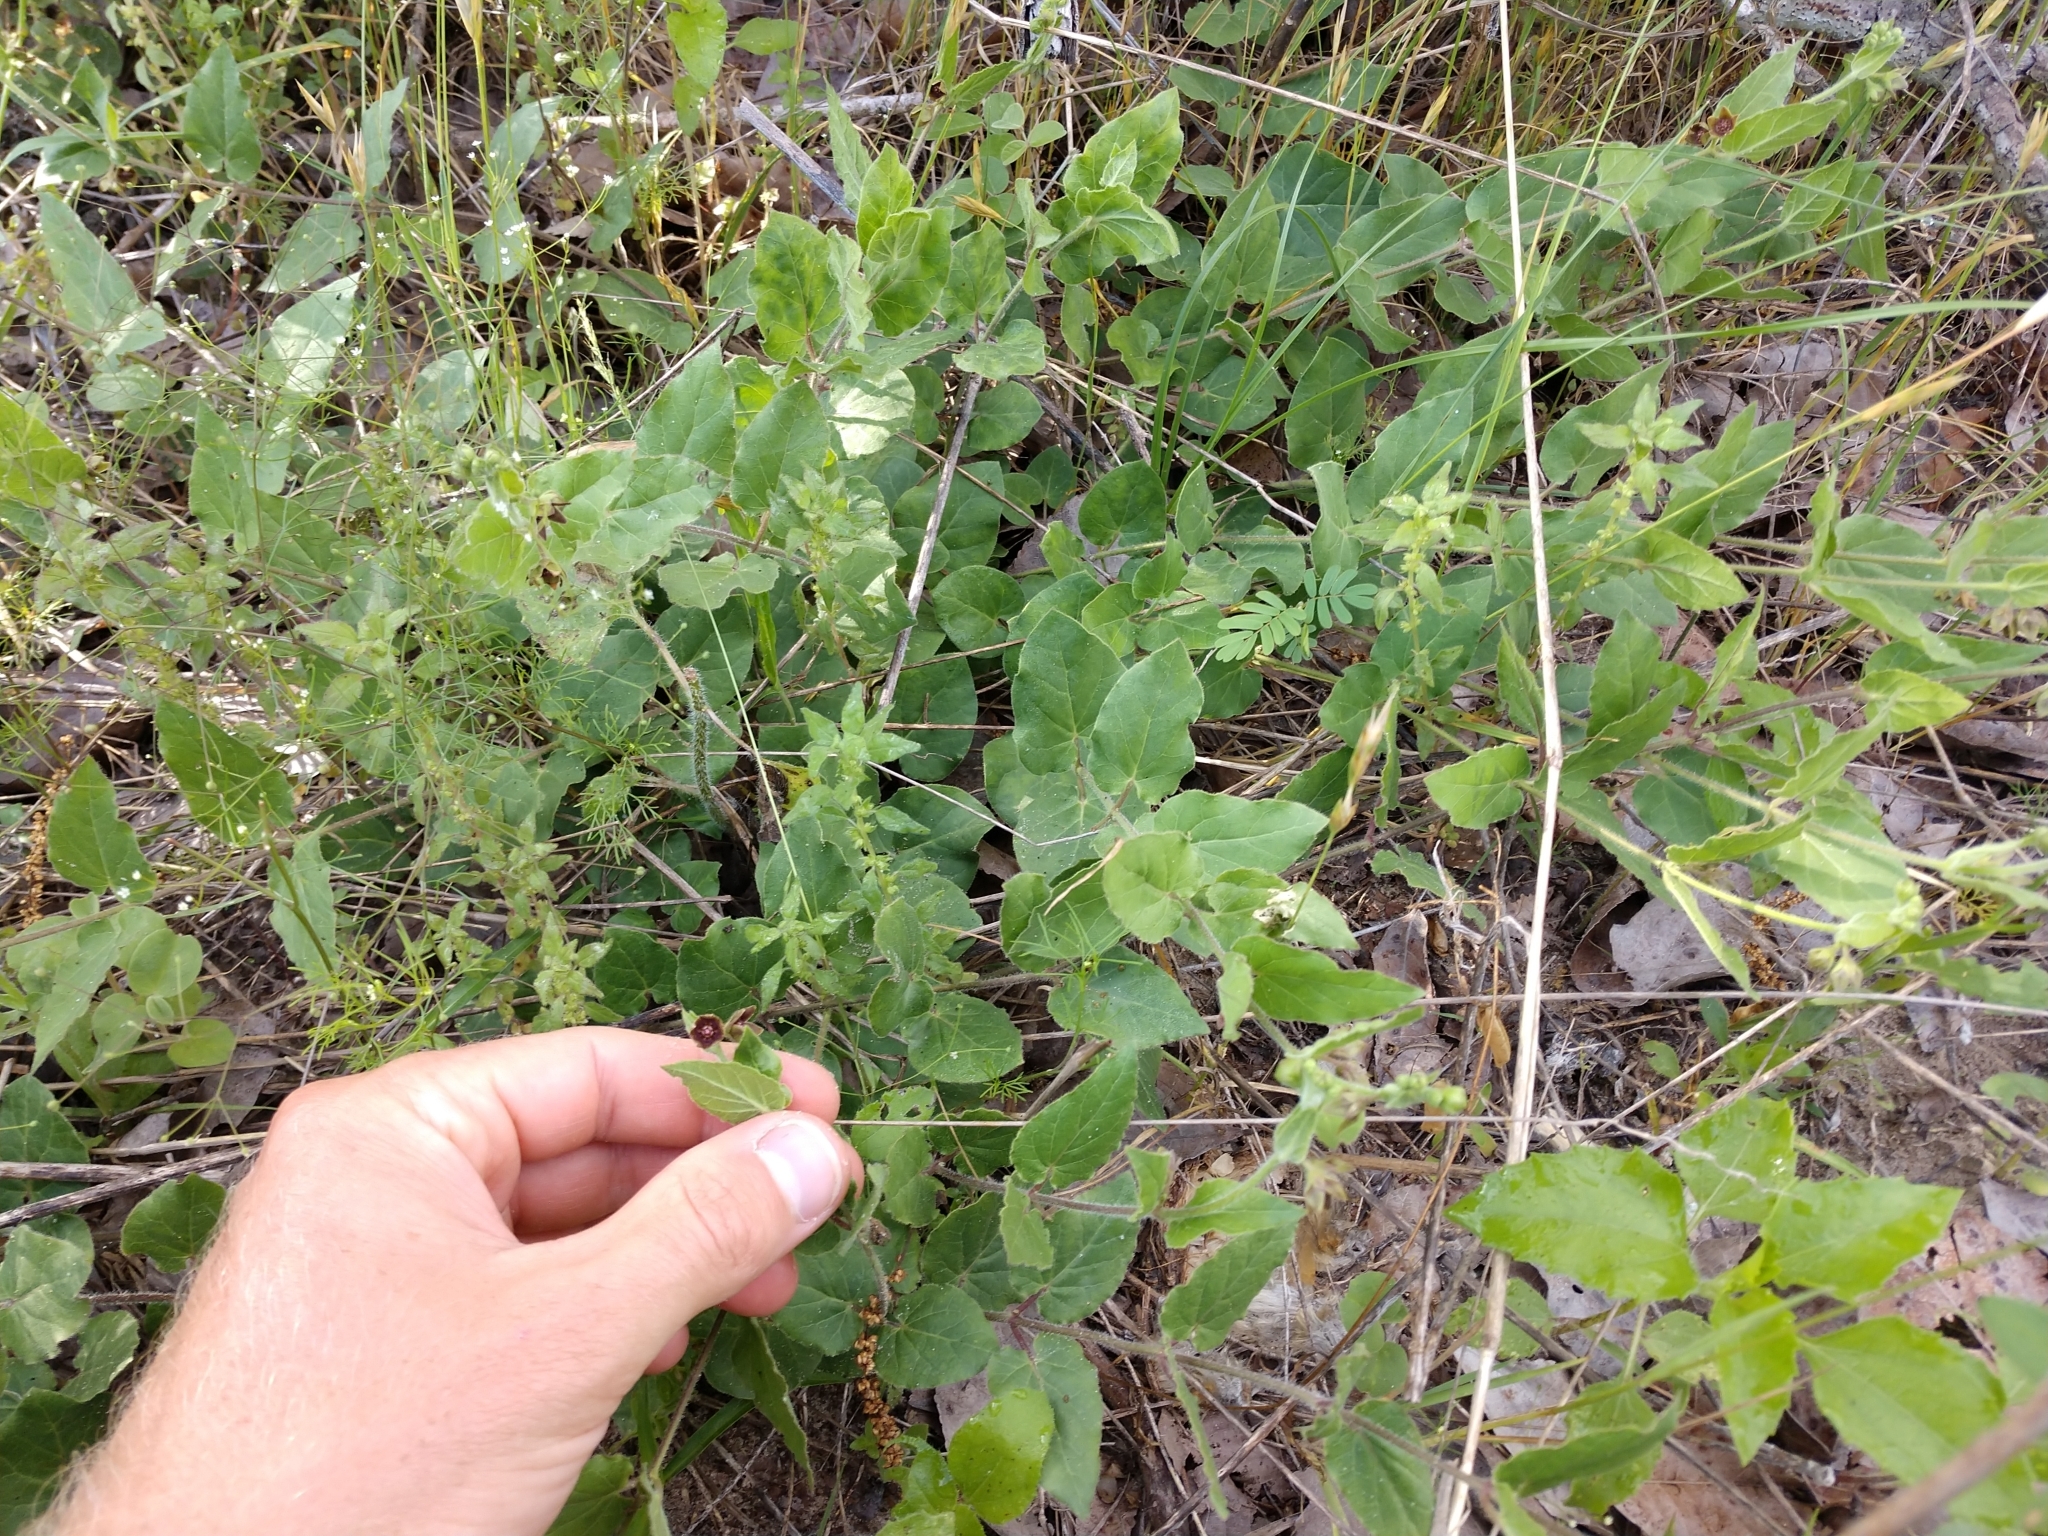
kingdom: Plantae
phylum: Tracheophyta
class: Magnoliopsida
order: Gentianales
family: Apocynaceae
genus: Matelea
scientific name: Matelea cynanchoides
